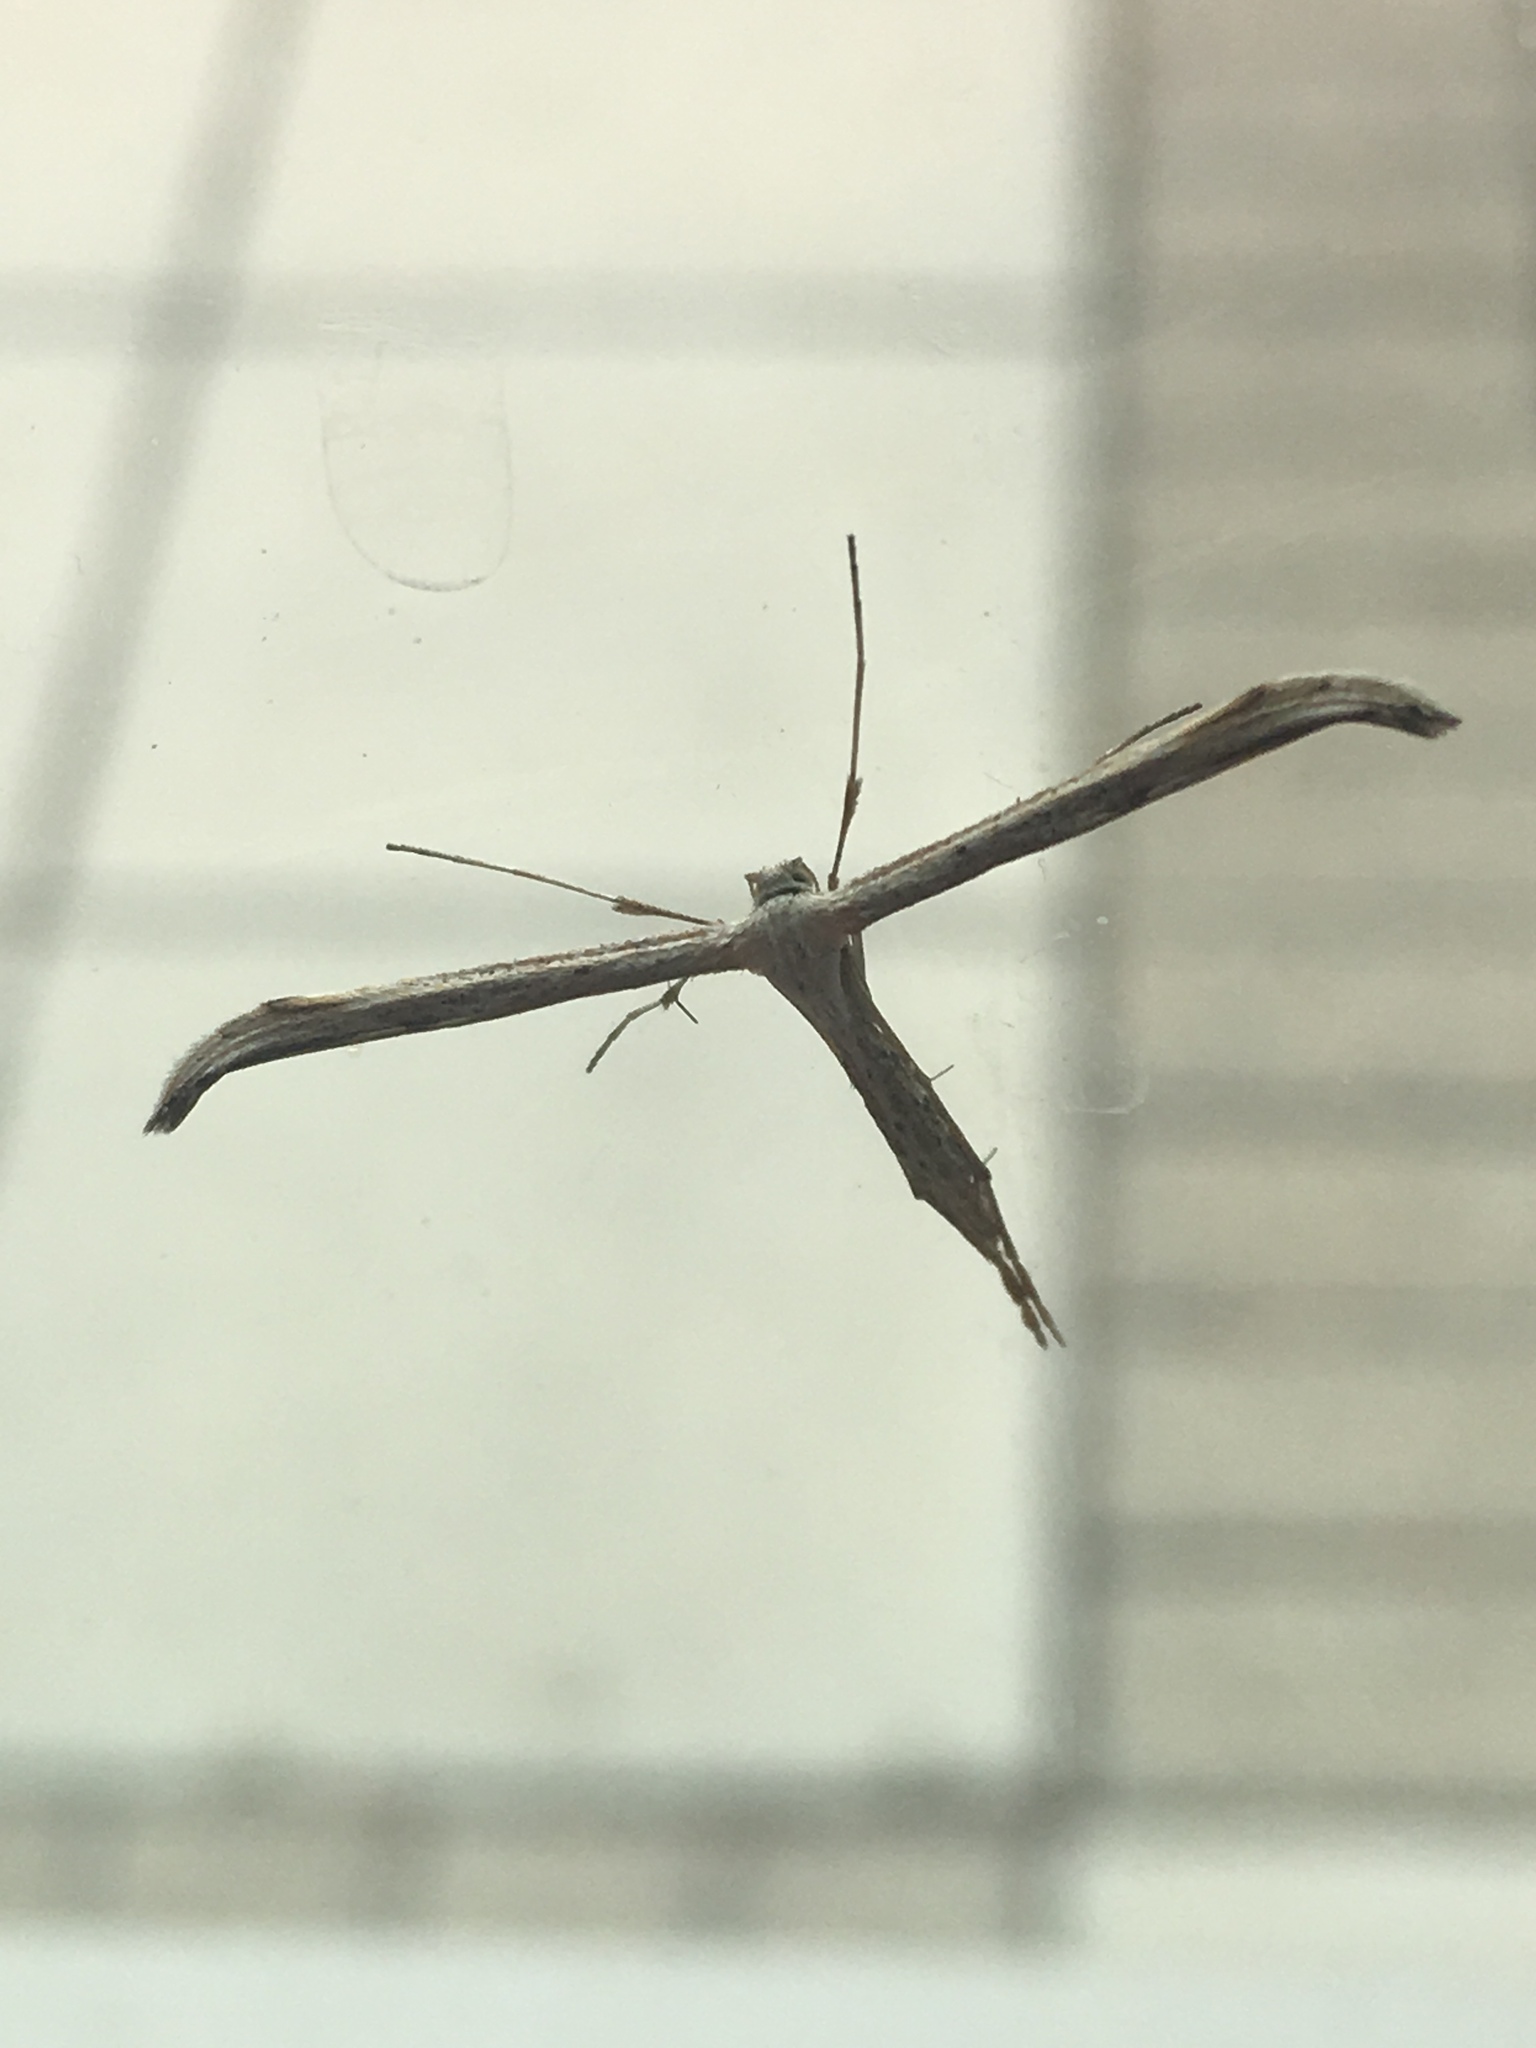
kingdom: Animalia
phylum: Arthropoda
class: Insecta
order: Lepidoptera
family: Pterophoridae
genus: Emmelina
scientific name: Emmelina monodactyla
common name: Common plume
